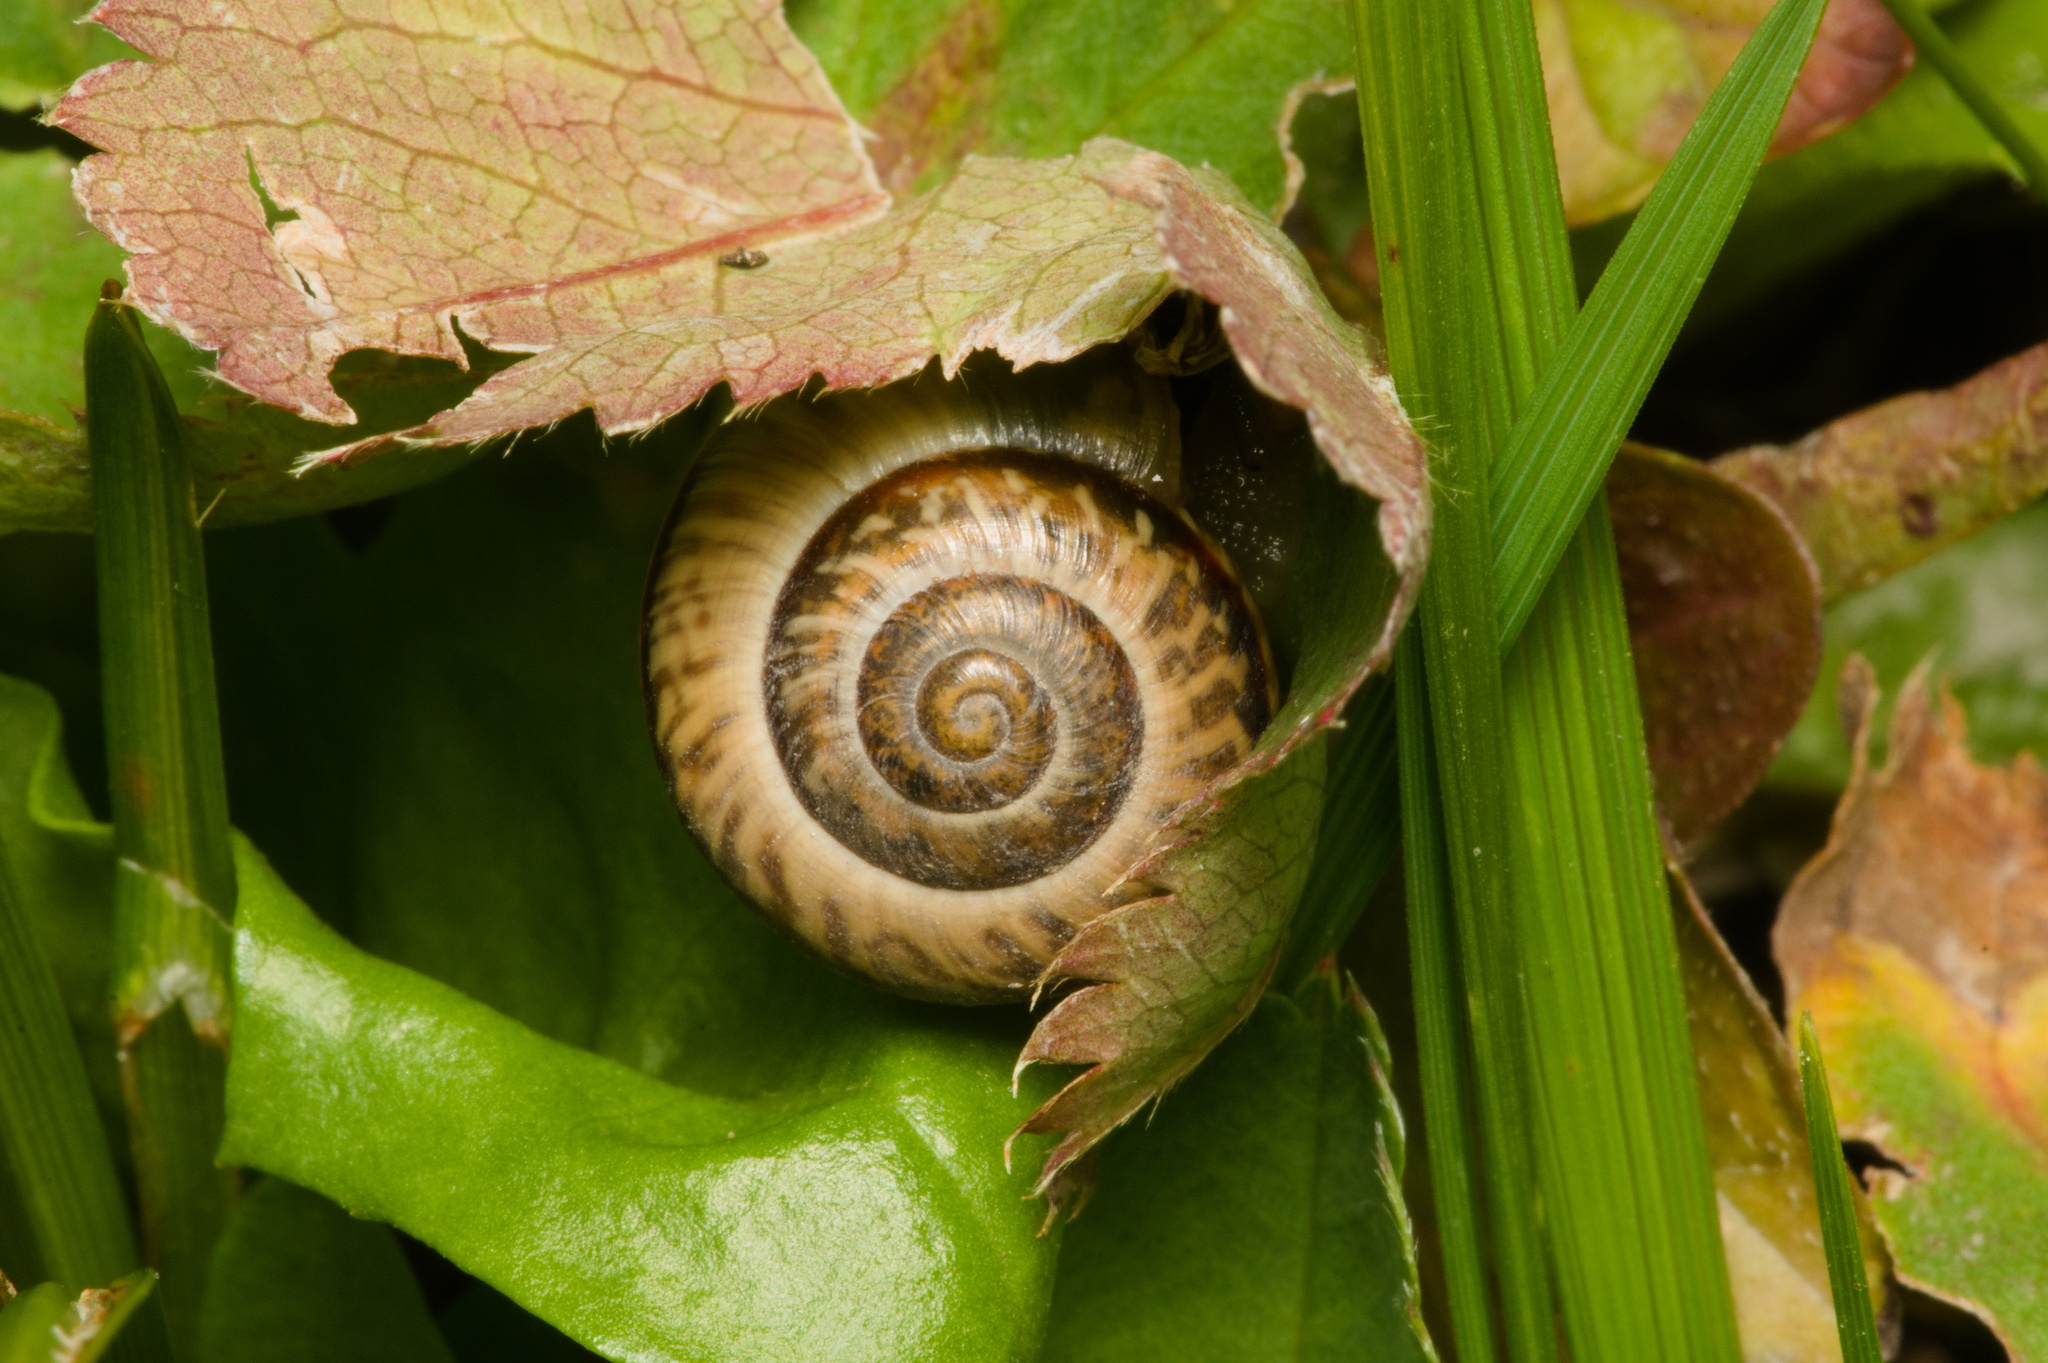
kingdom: Animalia
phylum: Mollusca
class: Gastropoda
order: Stylommatophora
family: Helicidae
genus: Arianta
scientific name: Arianta arbustorum
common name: Copse snail
